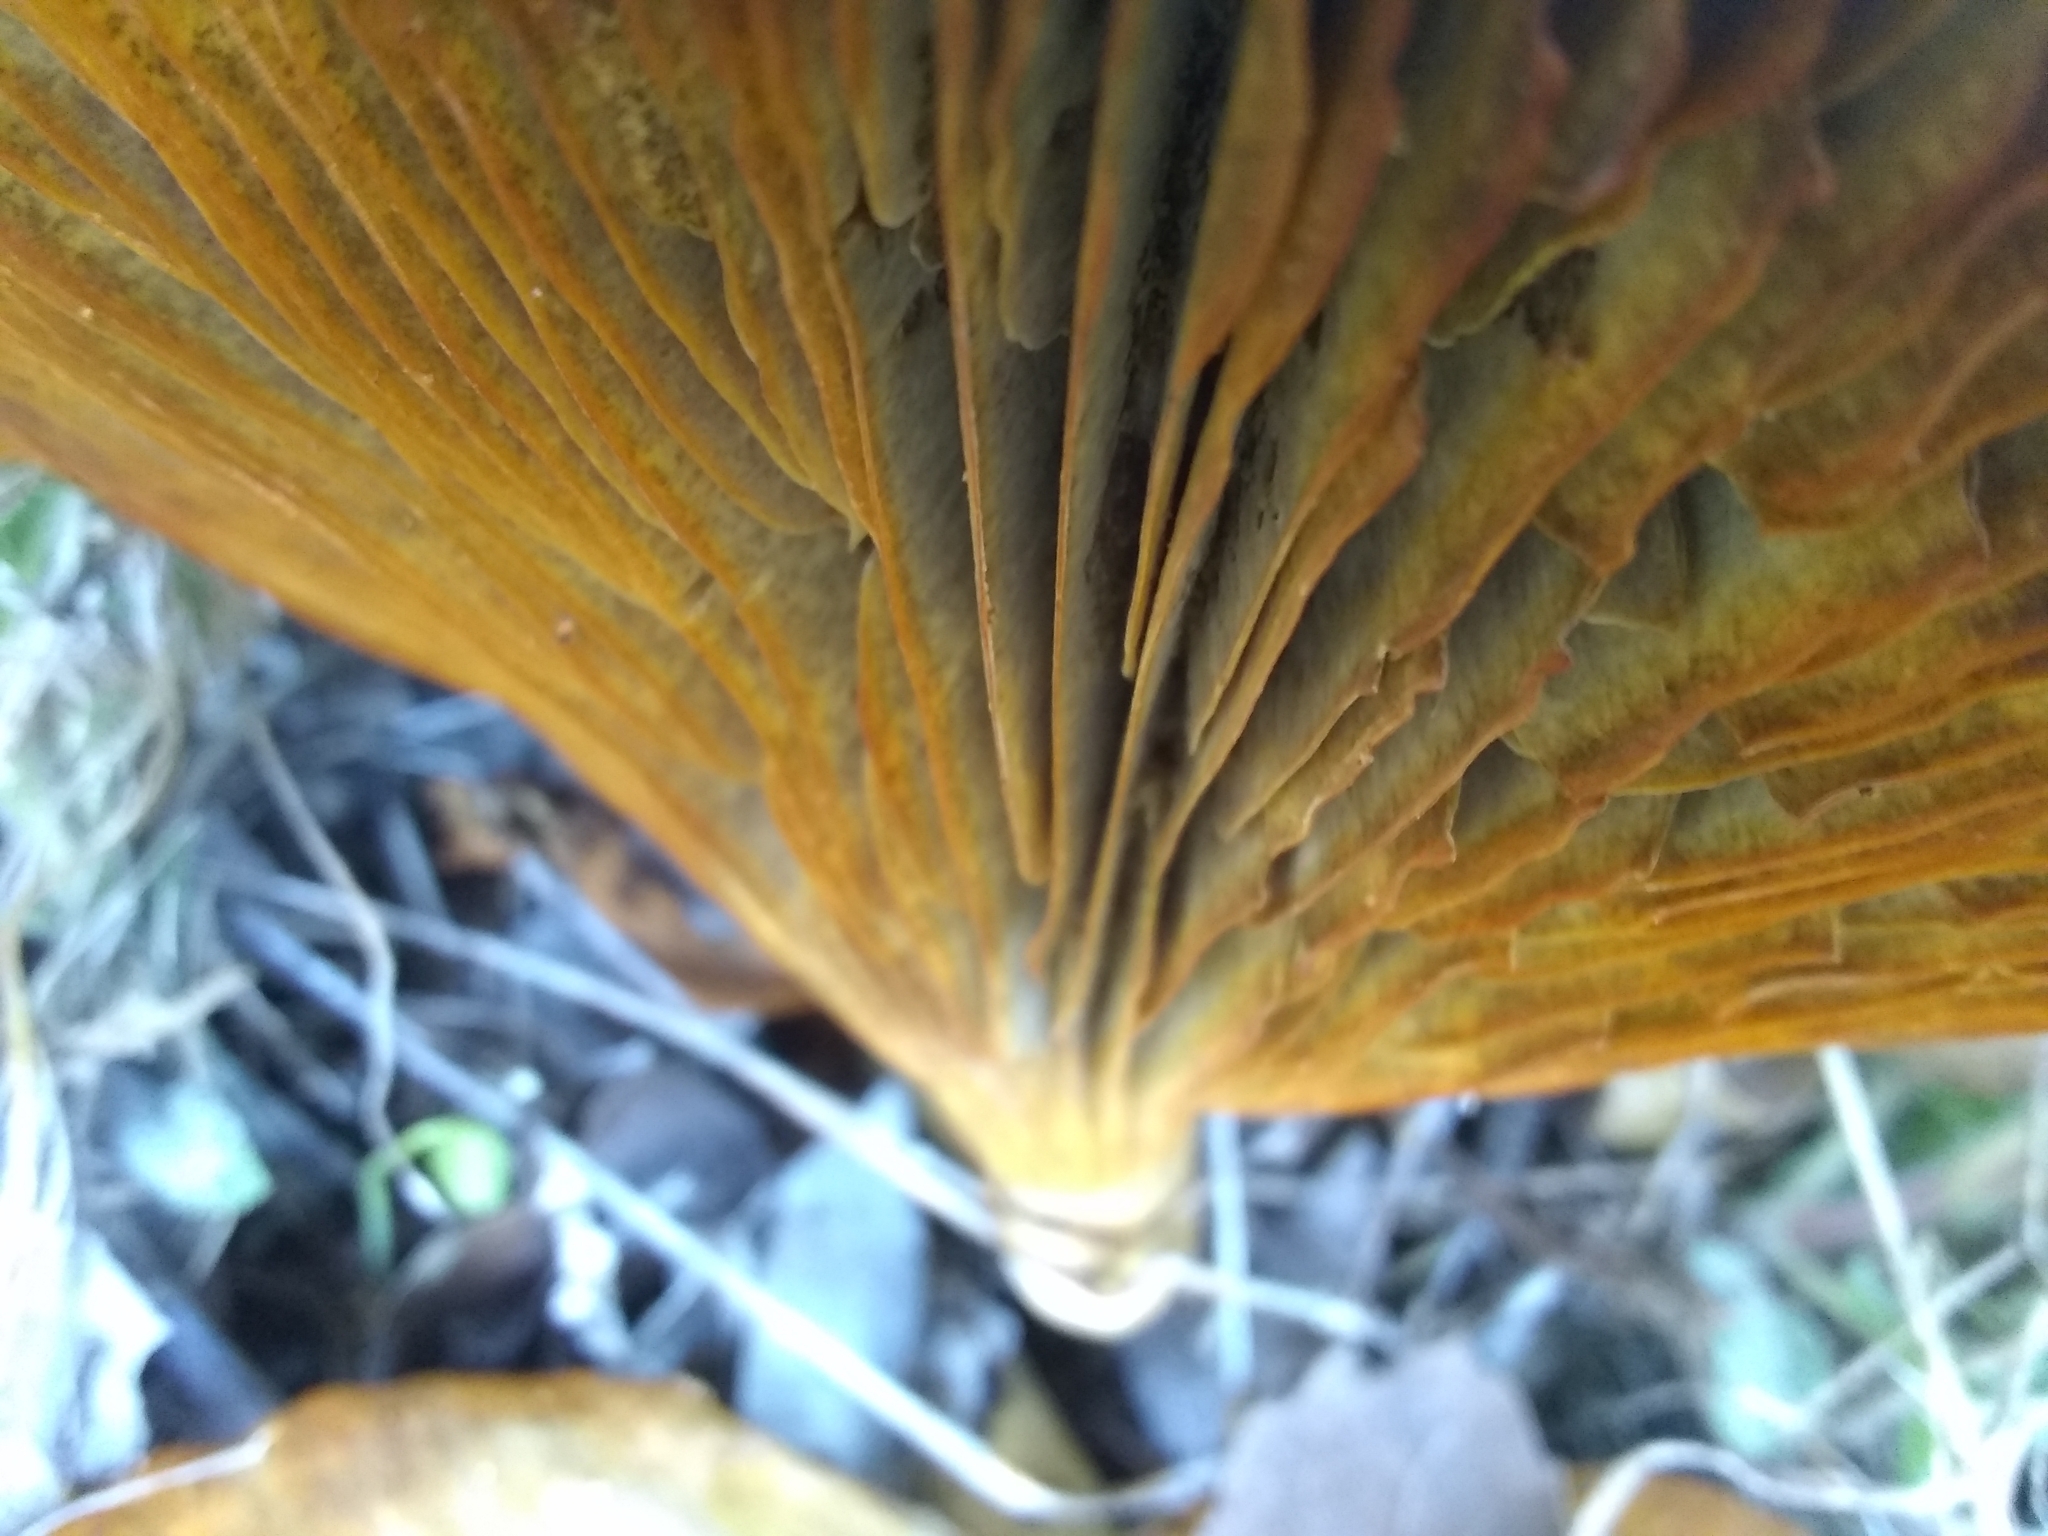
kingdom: Fungi
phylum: Basidiomycota
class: Agaricomycetes
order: Agaricales
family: Omphalotaceae
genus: Omphalotus
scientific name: Omphalotus olivascens
